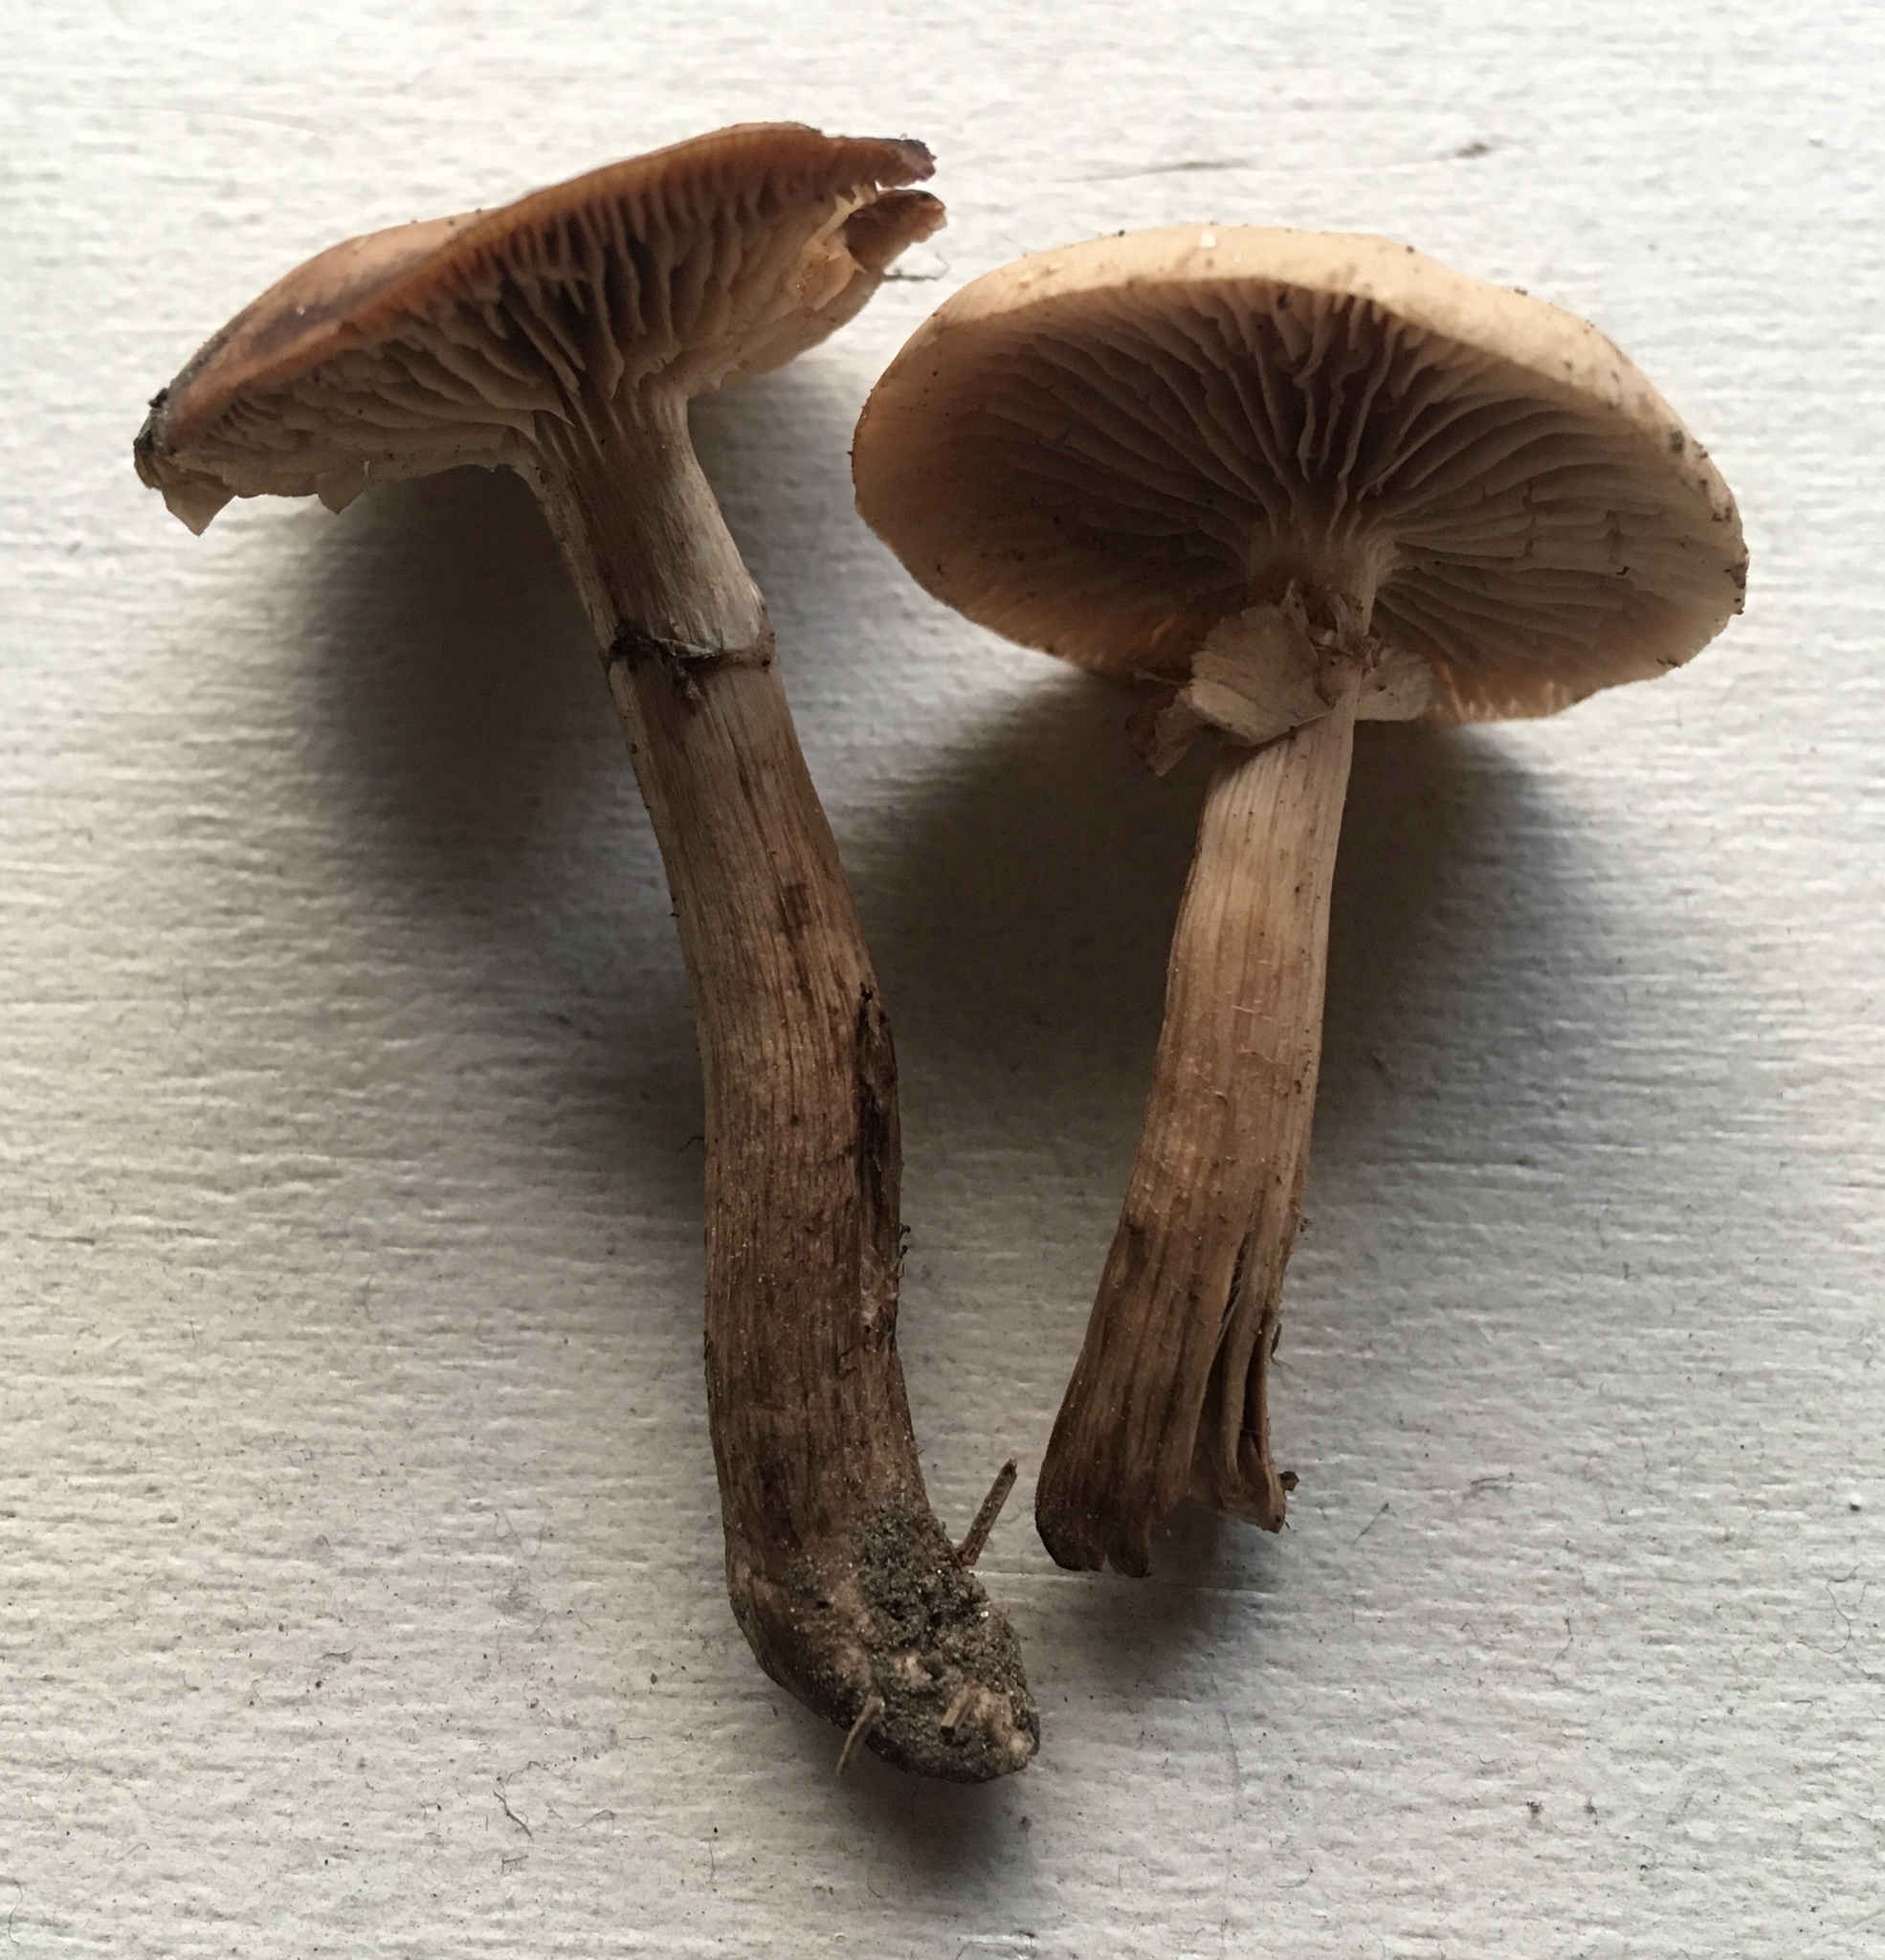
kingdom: Fungi
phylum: Basidiomycota
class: Agaricomycetes
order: Agaricales
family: Tubariaceae
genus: Cyclocybe
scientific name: Cyclocybe erebia
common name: Dark fieldcap
